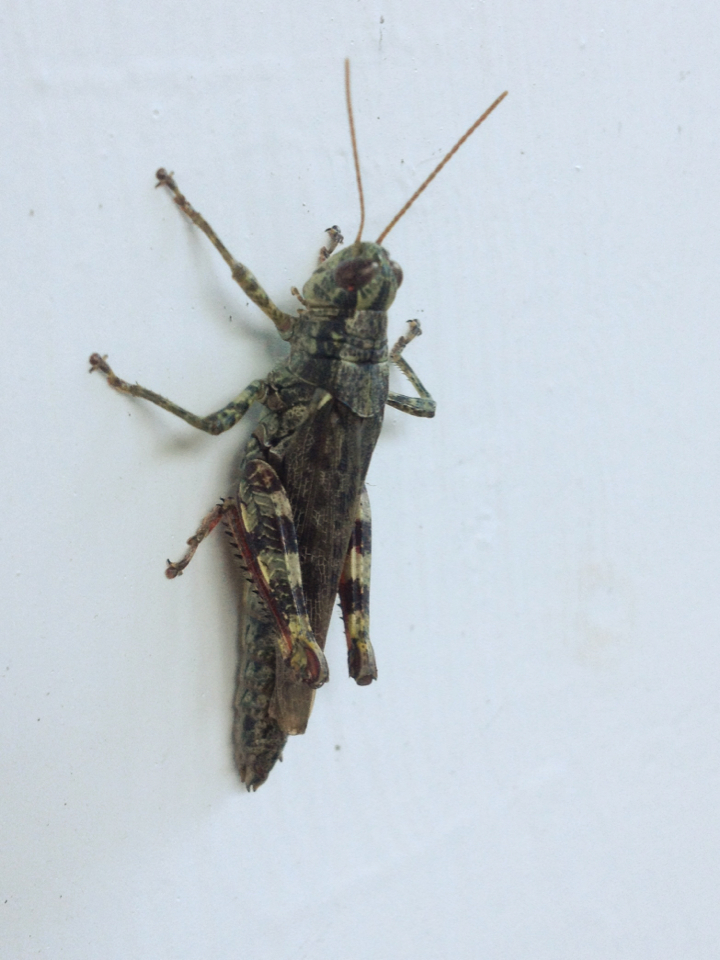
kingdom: Animalia
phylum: Arthropoda
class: Insecta
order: Orthoptera
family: Acrididae
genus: Melanoplus
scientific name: Melanoplus punctulatus
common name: Pine-tree spur-throat grasshopper
